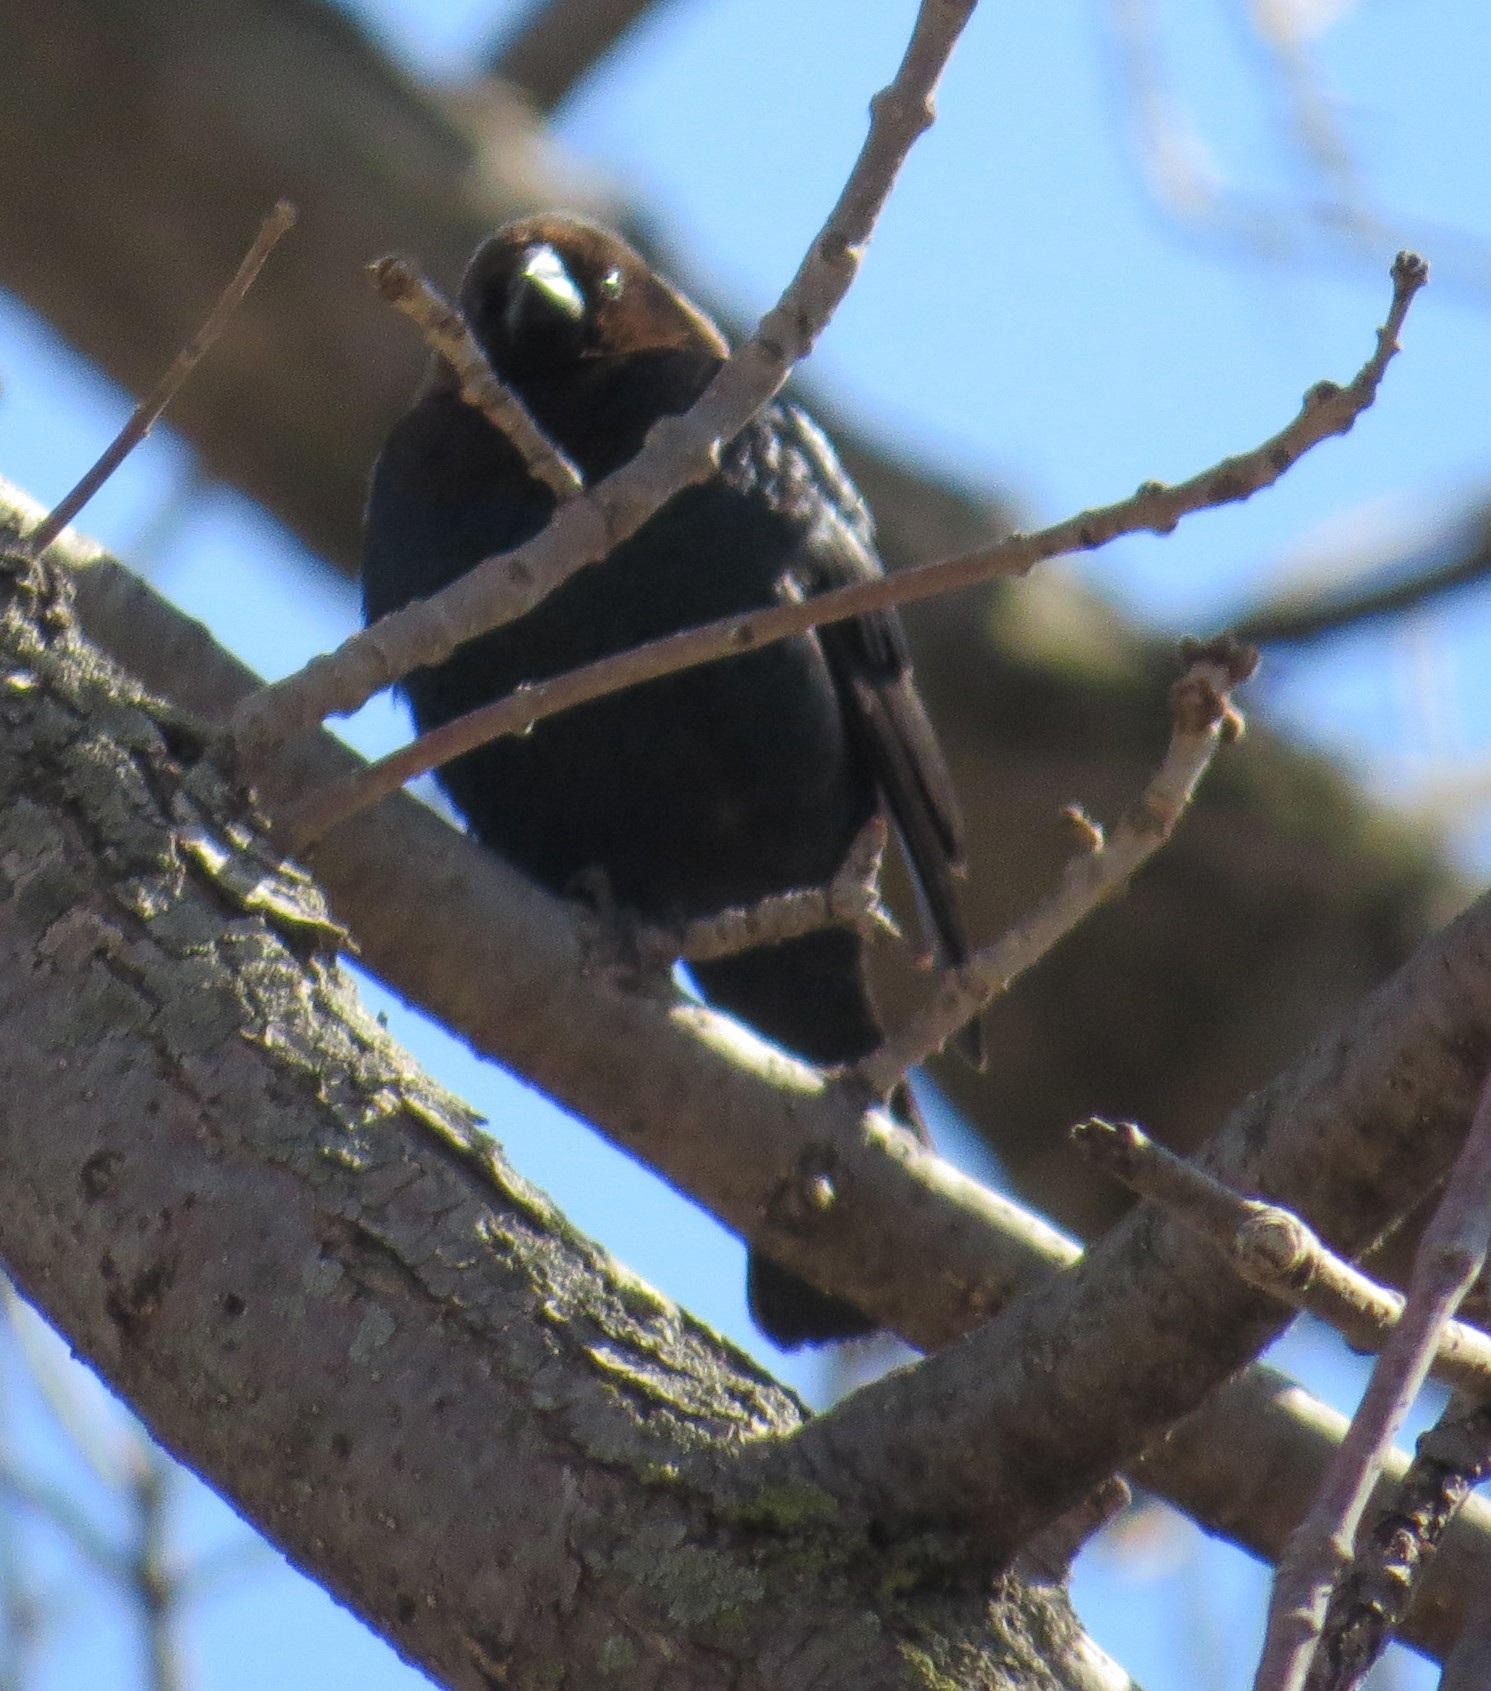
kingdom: Animalia
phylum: Chordata
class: Aves
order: Passeriformes
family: Icteridae
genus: Molothrus
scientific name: Molothrus ater
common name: Brown-headed cowbird
